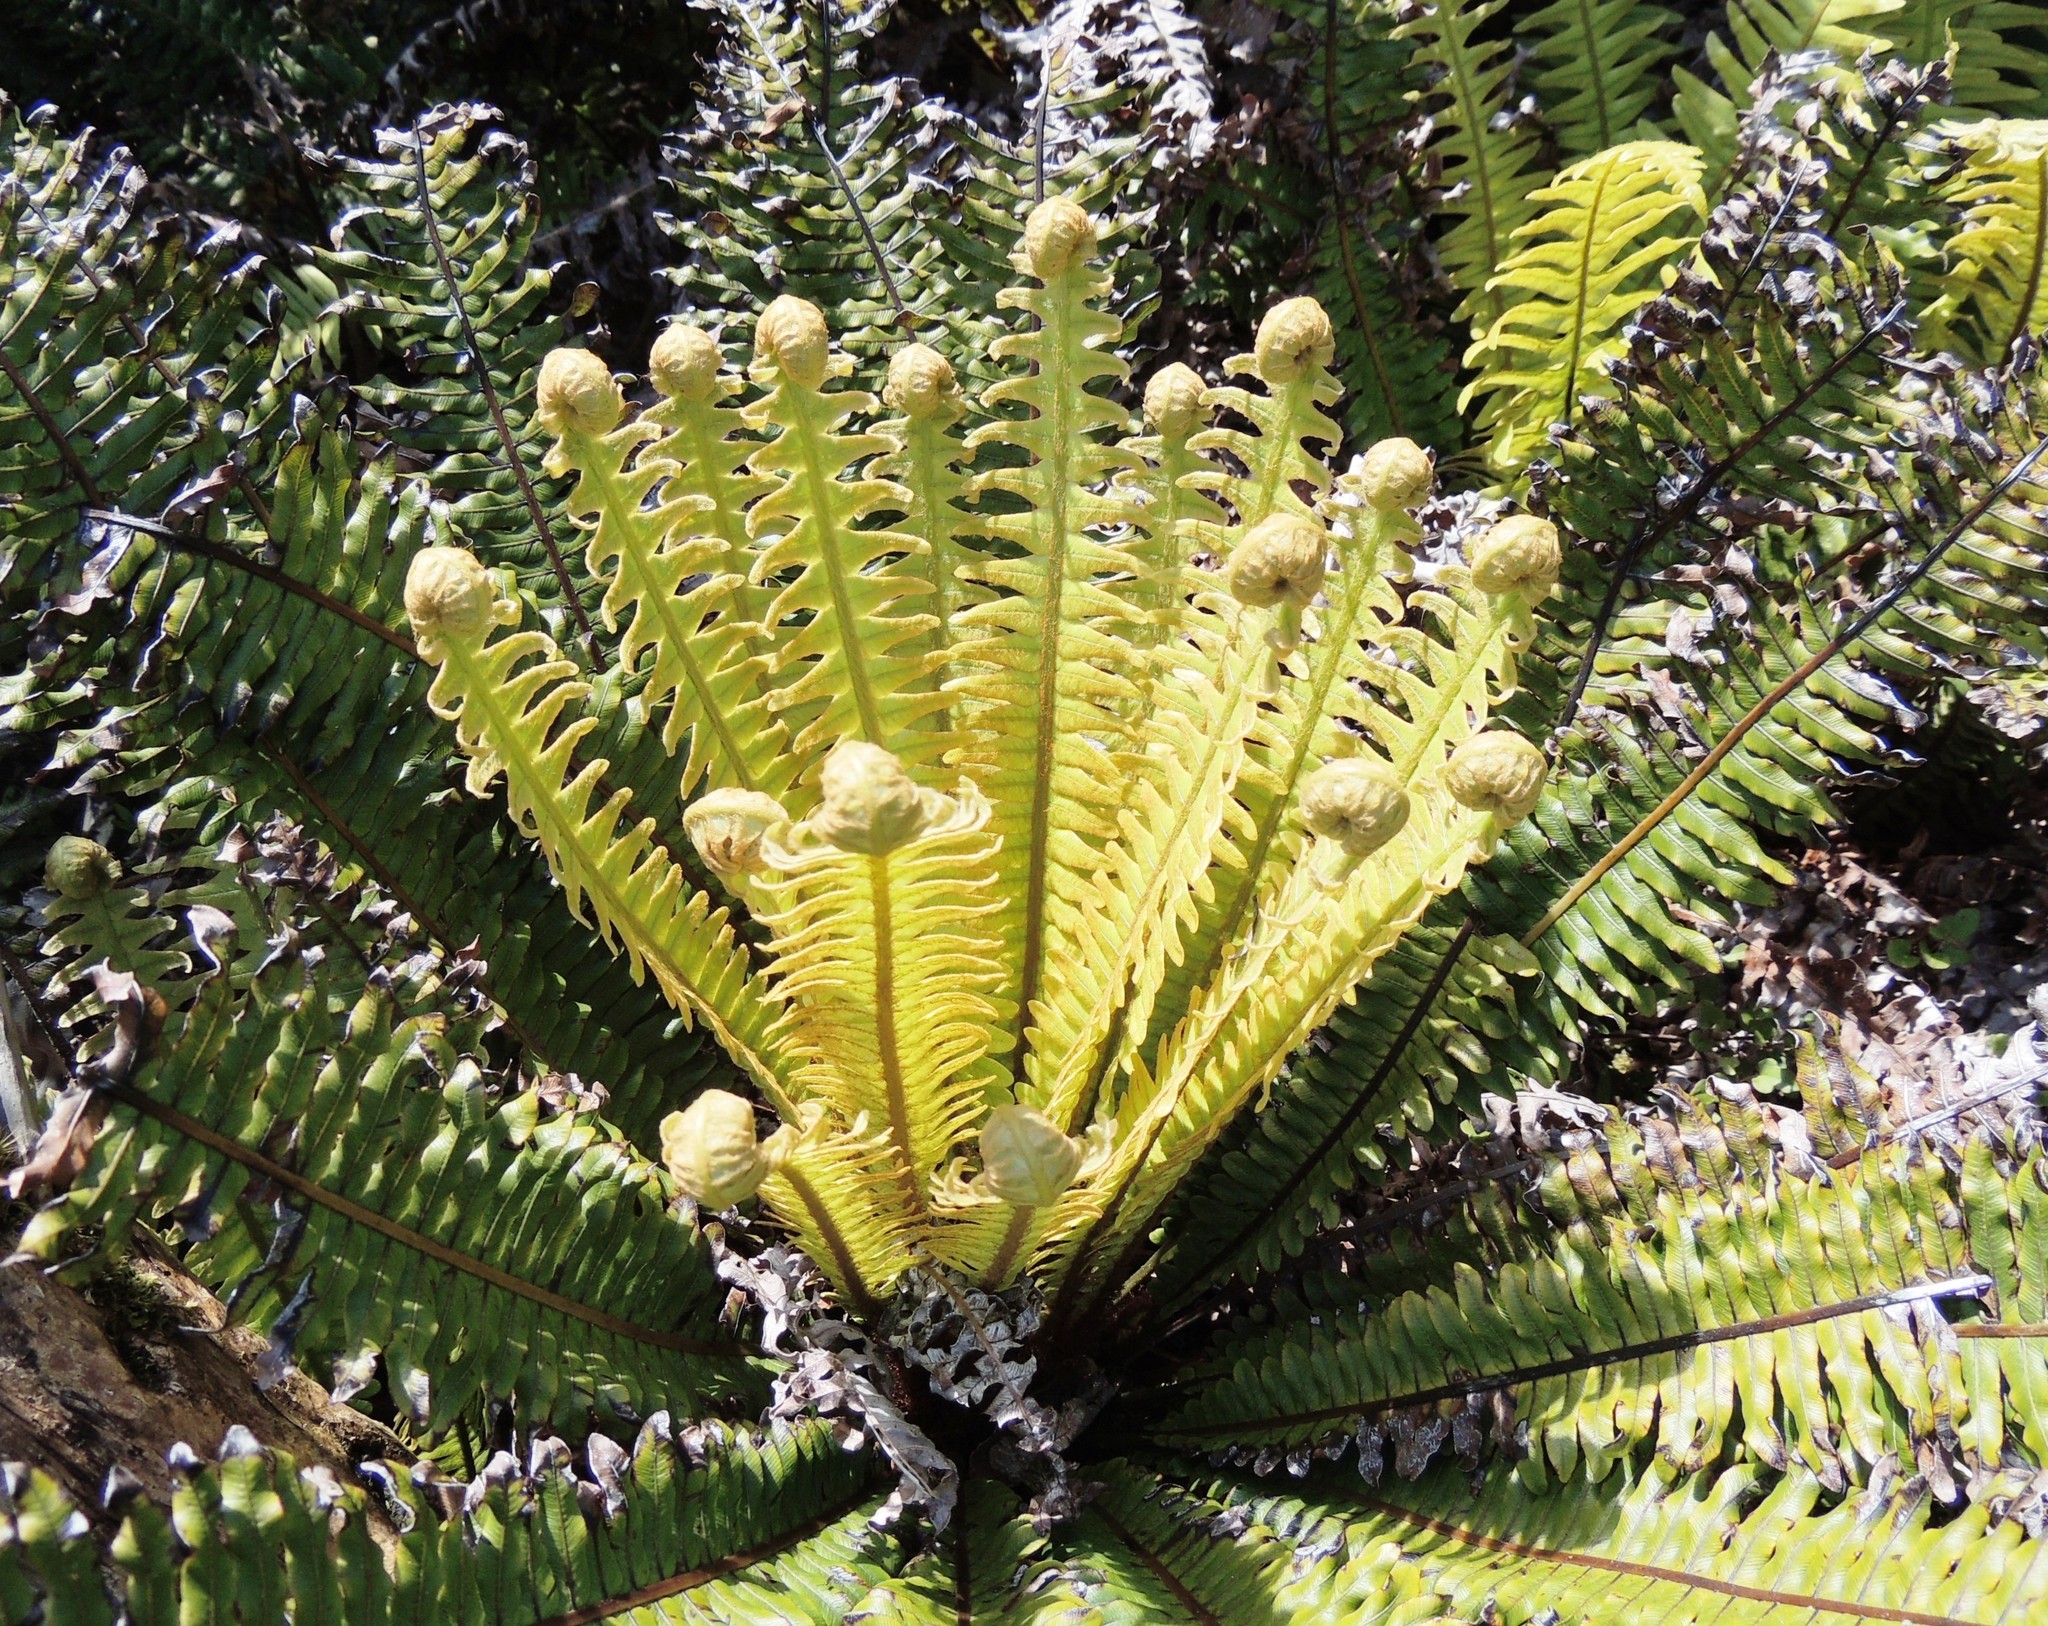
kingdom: Plantae
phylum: Tracheophyta
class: Polypodiopsida
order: Polypodiales
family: Blechnaceae
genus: Lomaria
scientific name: Lomaria discolor
